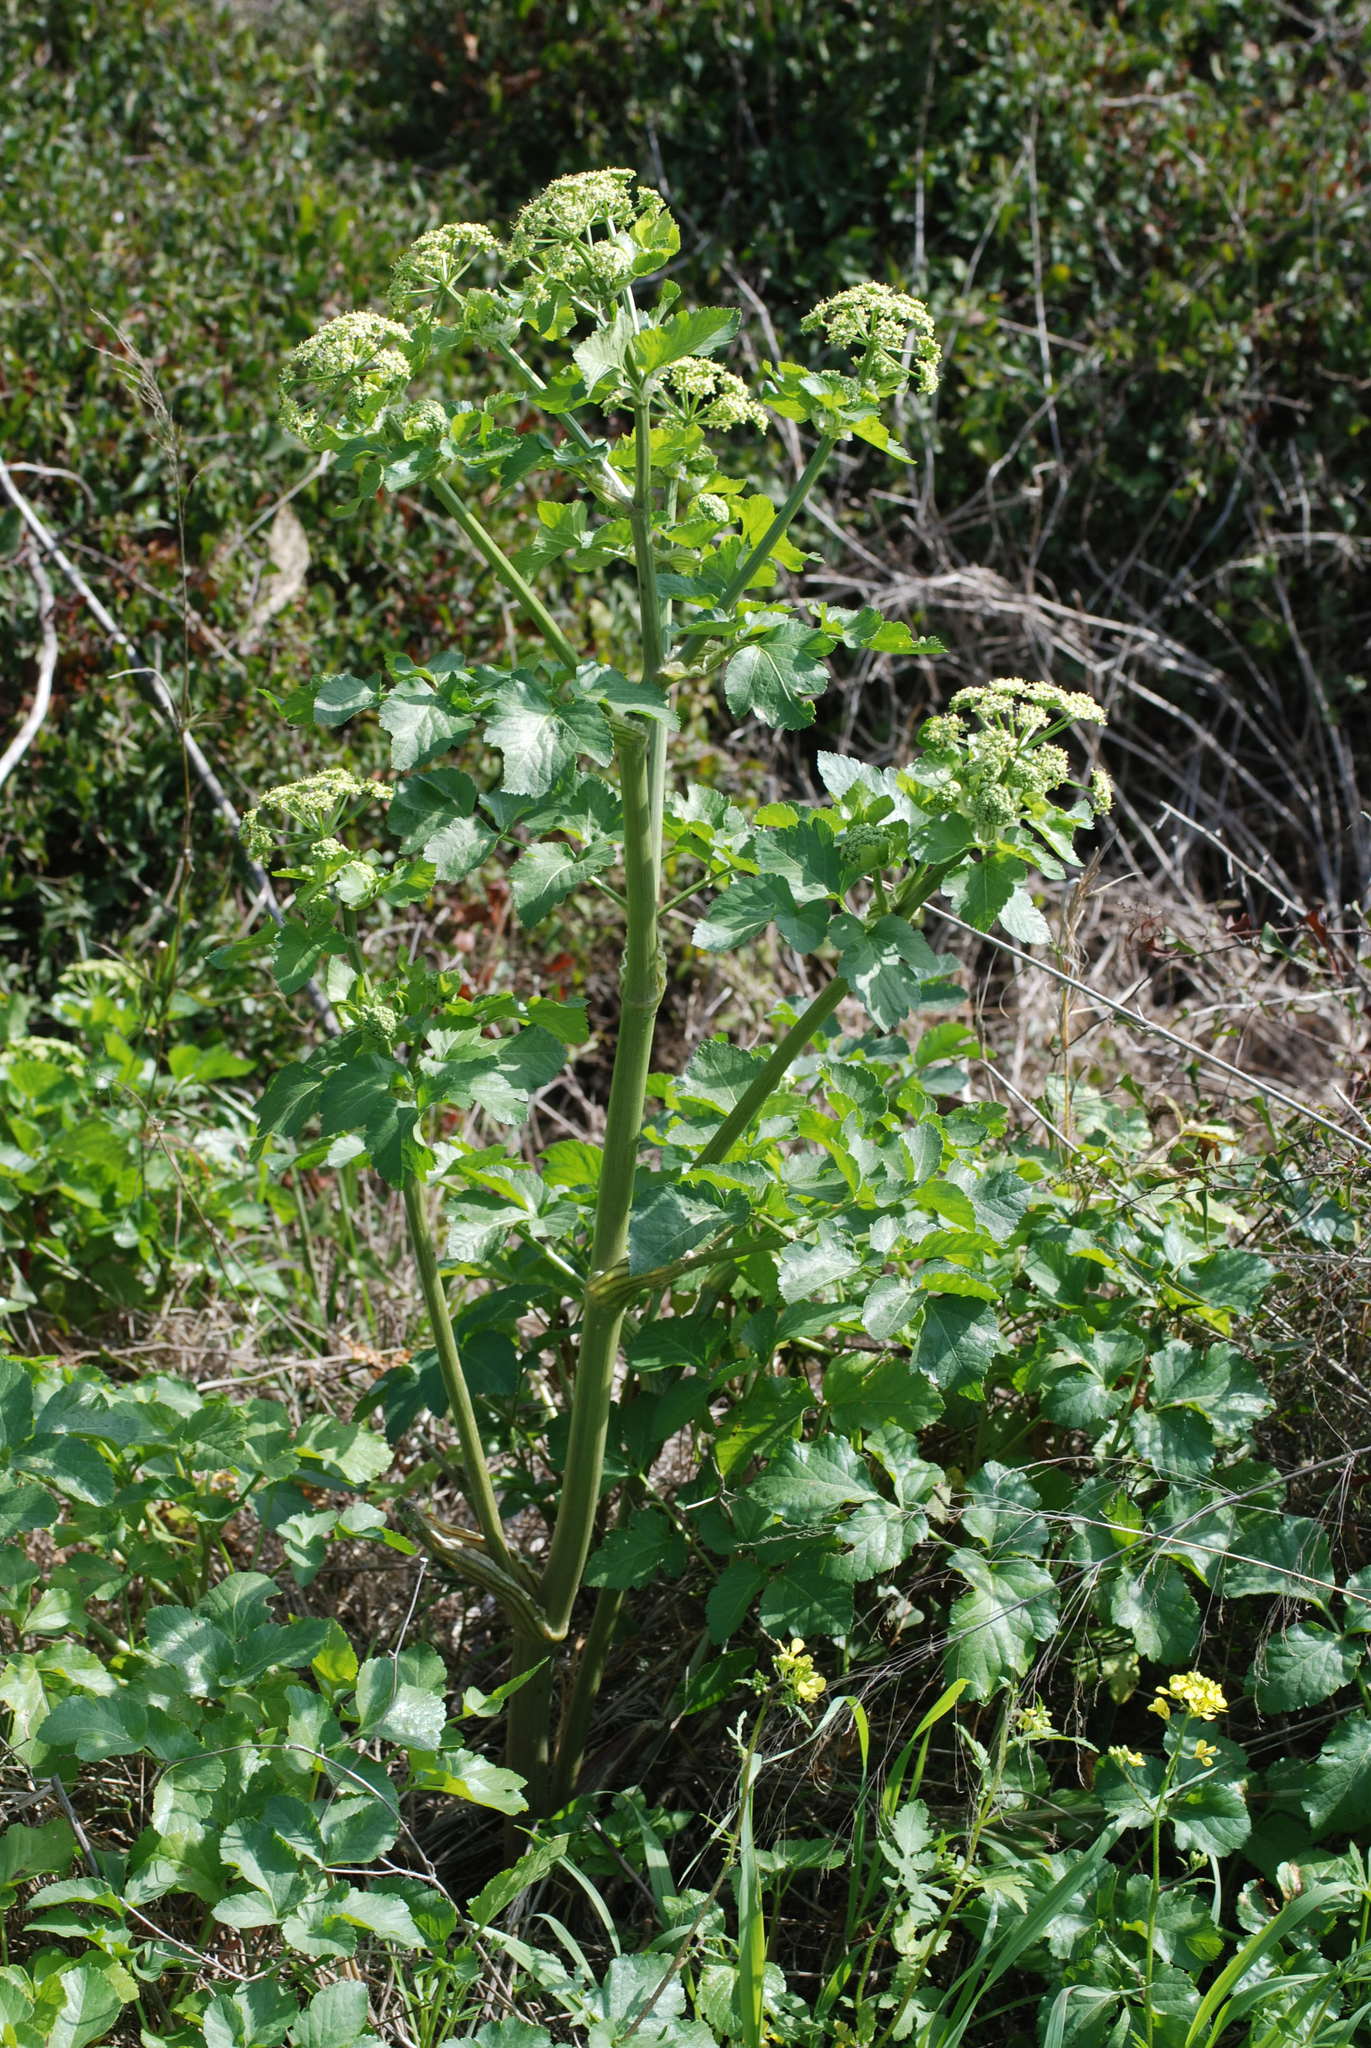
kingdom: Plantae
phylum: Tracheophyta
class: Magnoliopsida
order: Apiales
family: Apiaceae
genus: Smyrnium
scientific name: Smyrnium olusatrum
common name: Alexanders
